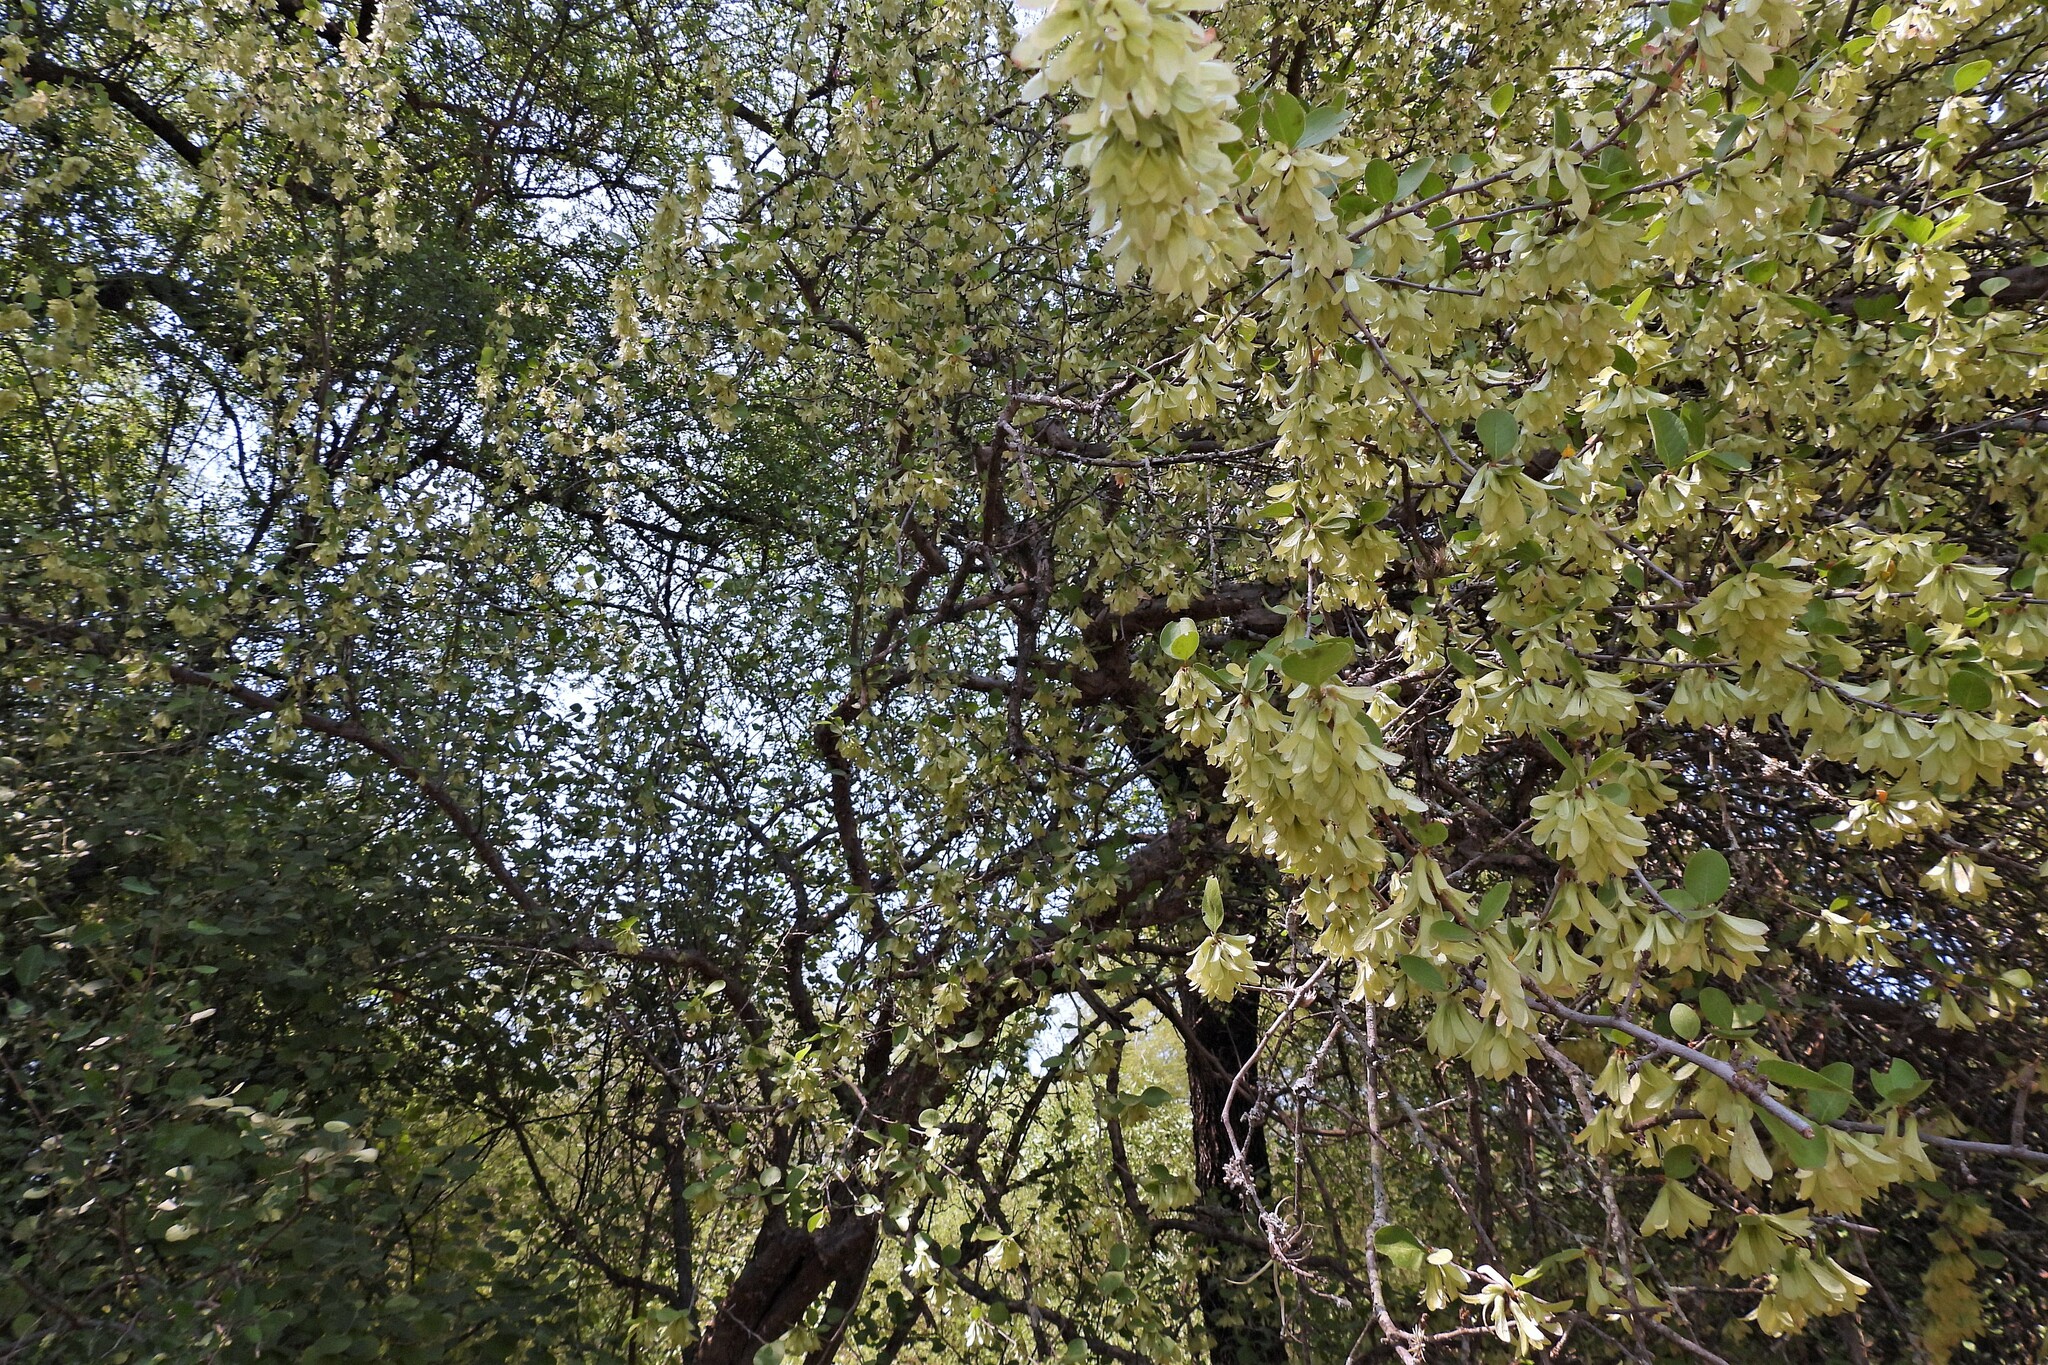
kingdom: Plantae
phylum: Tracheophyta
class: Magnoliopsida
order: Caryophyllales
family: Polygonaceae
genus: Salta
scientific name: Salta triflora
